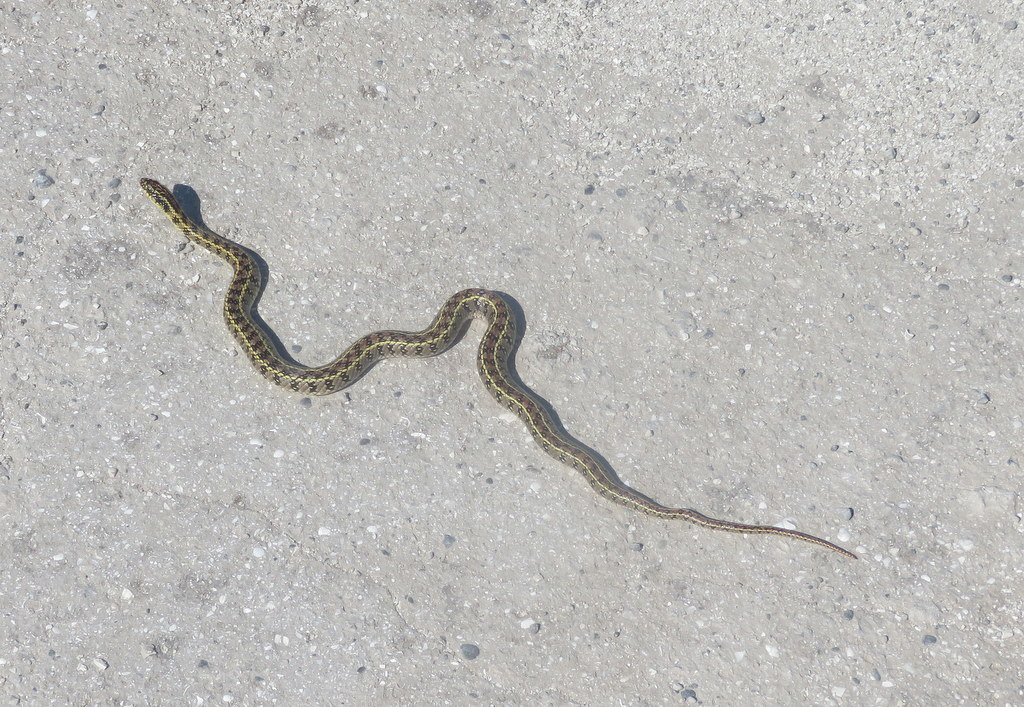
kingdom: Animalia
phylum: Chordata
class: Squamata
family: Colubridae
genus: Lygophis
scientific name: Lygophis anomalus
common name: English common name not available
